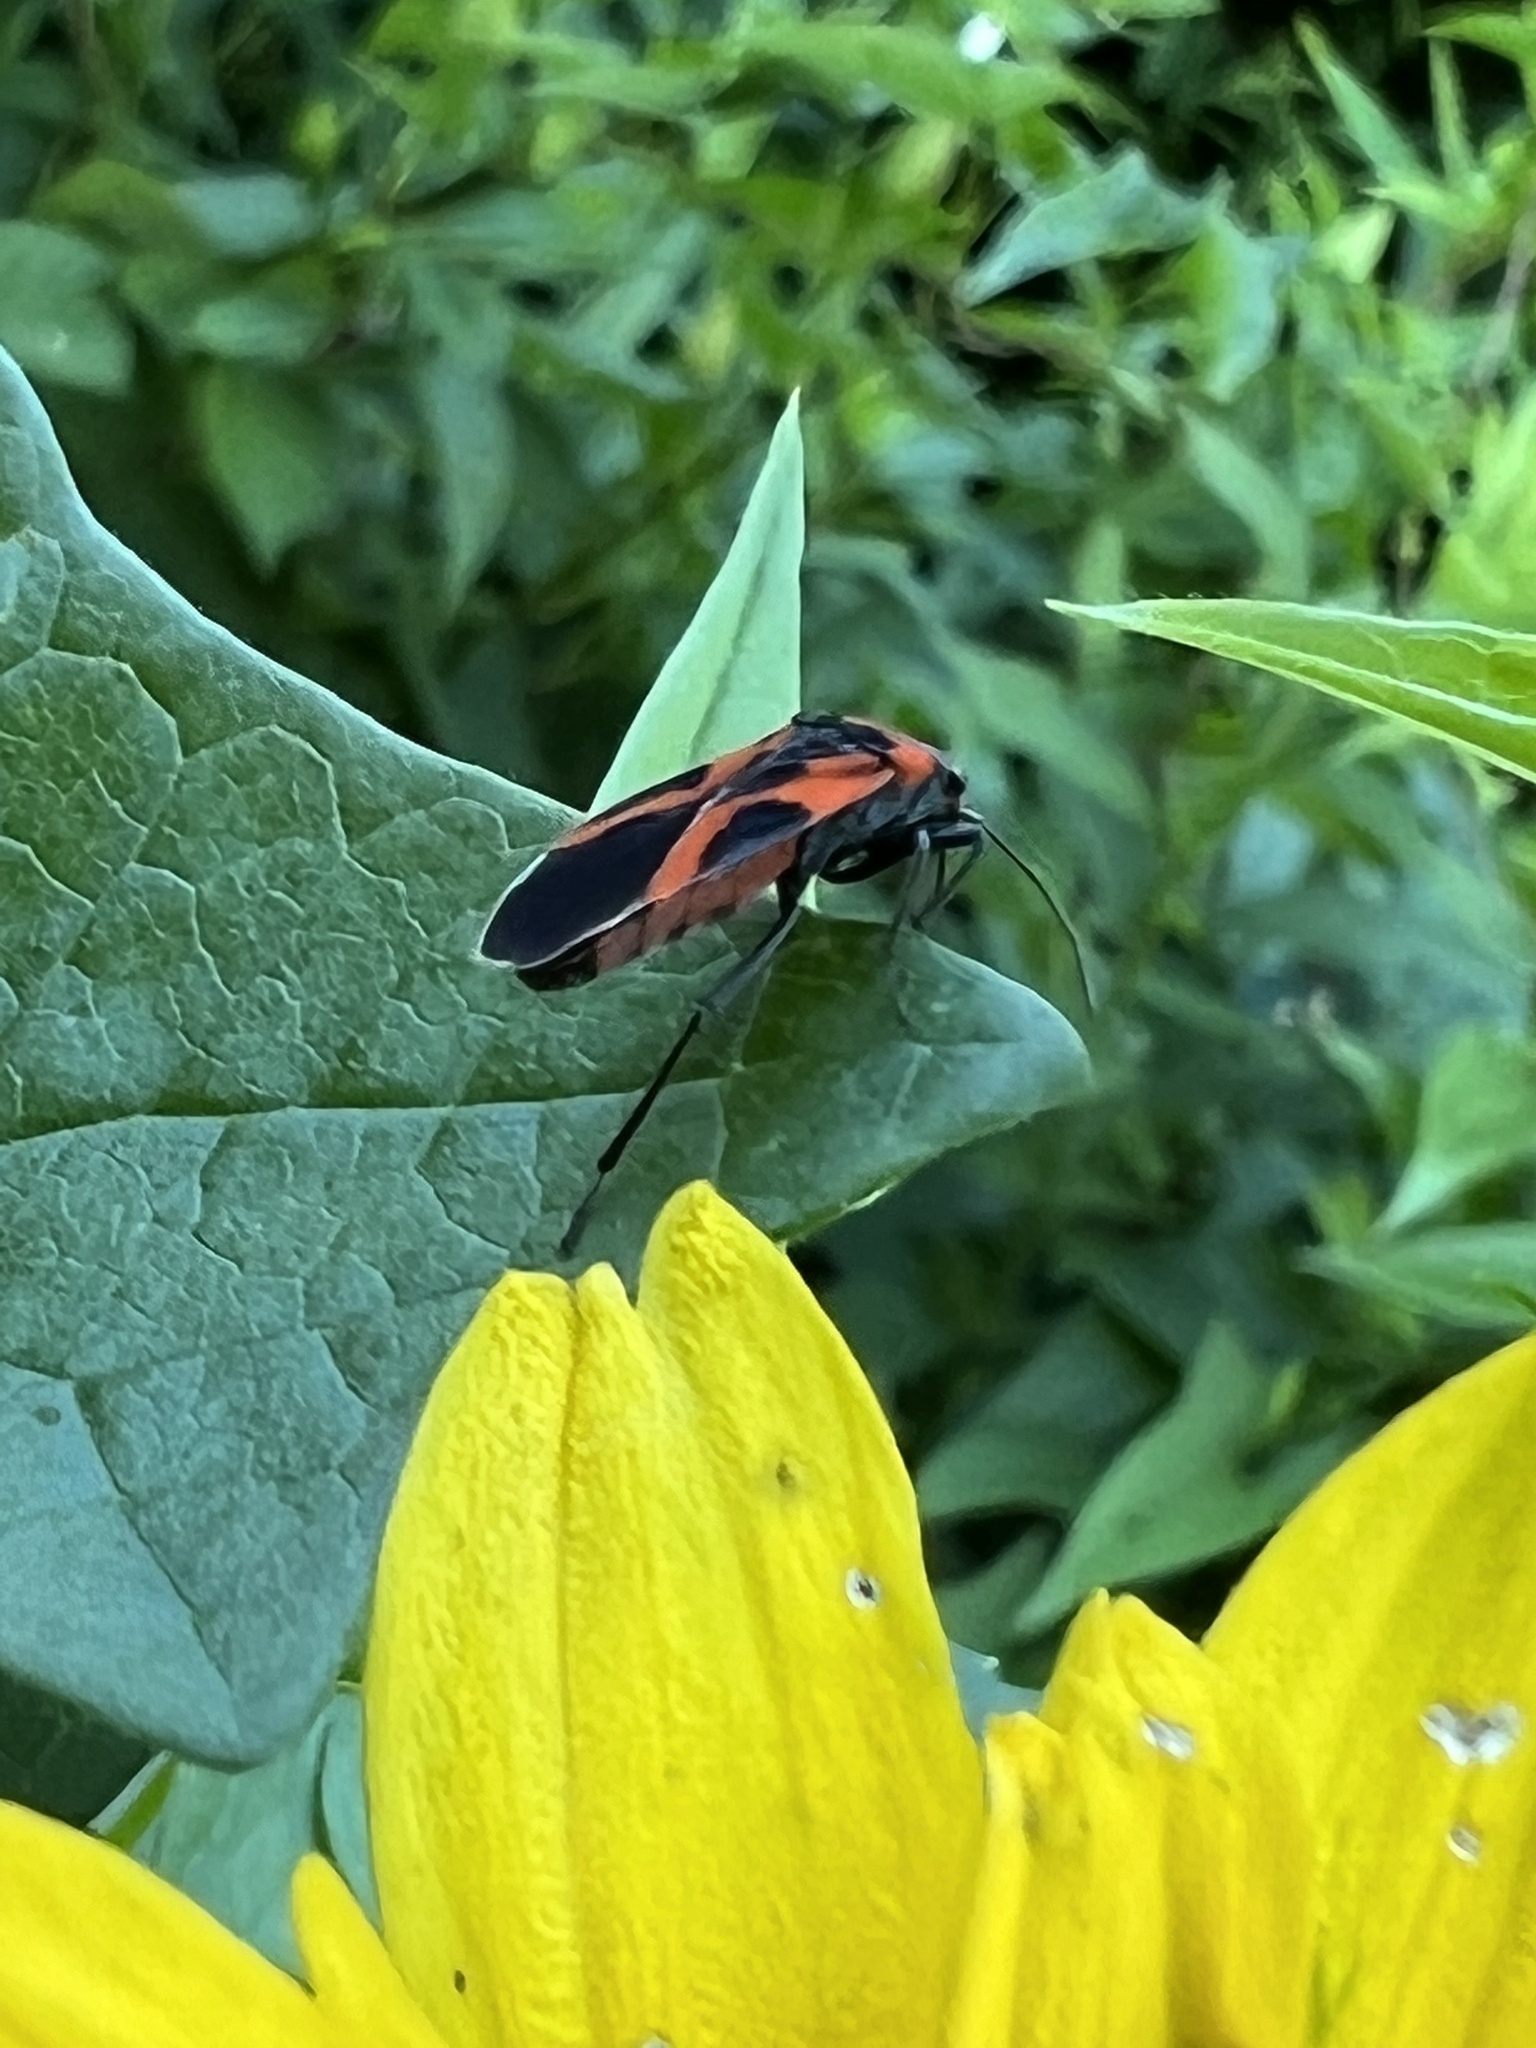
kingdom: Animalia
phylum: Arthropoda
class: Insecta
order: Hemiptera
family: Lygaeidae
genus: Lygaeus
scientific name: Lygaeus turcicus
